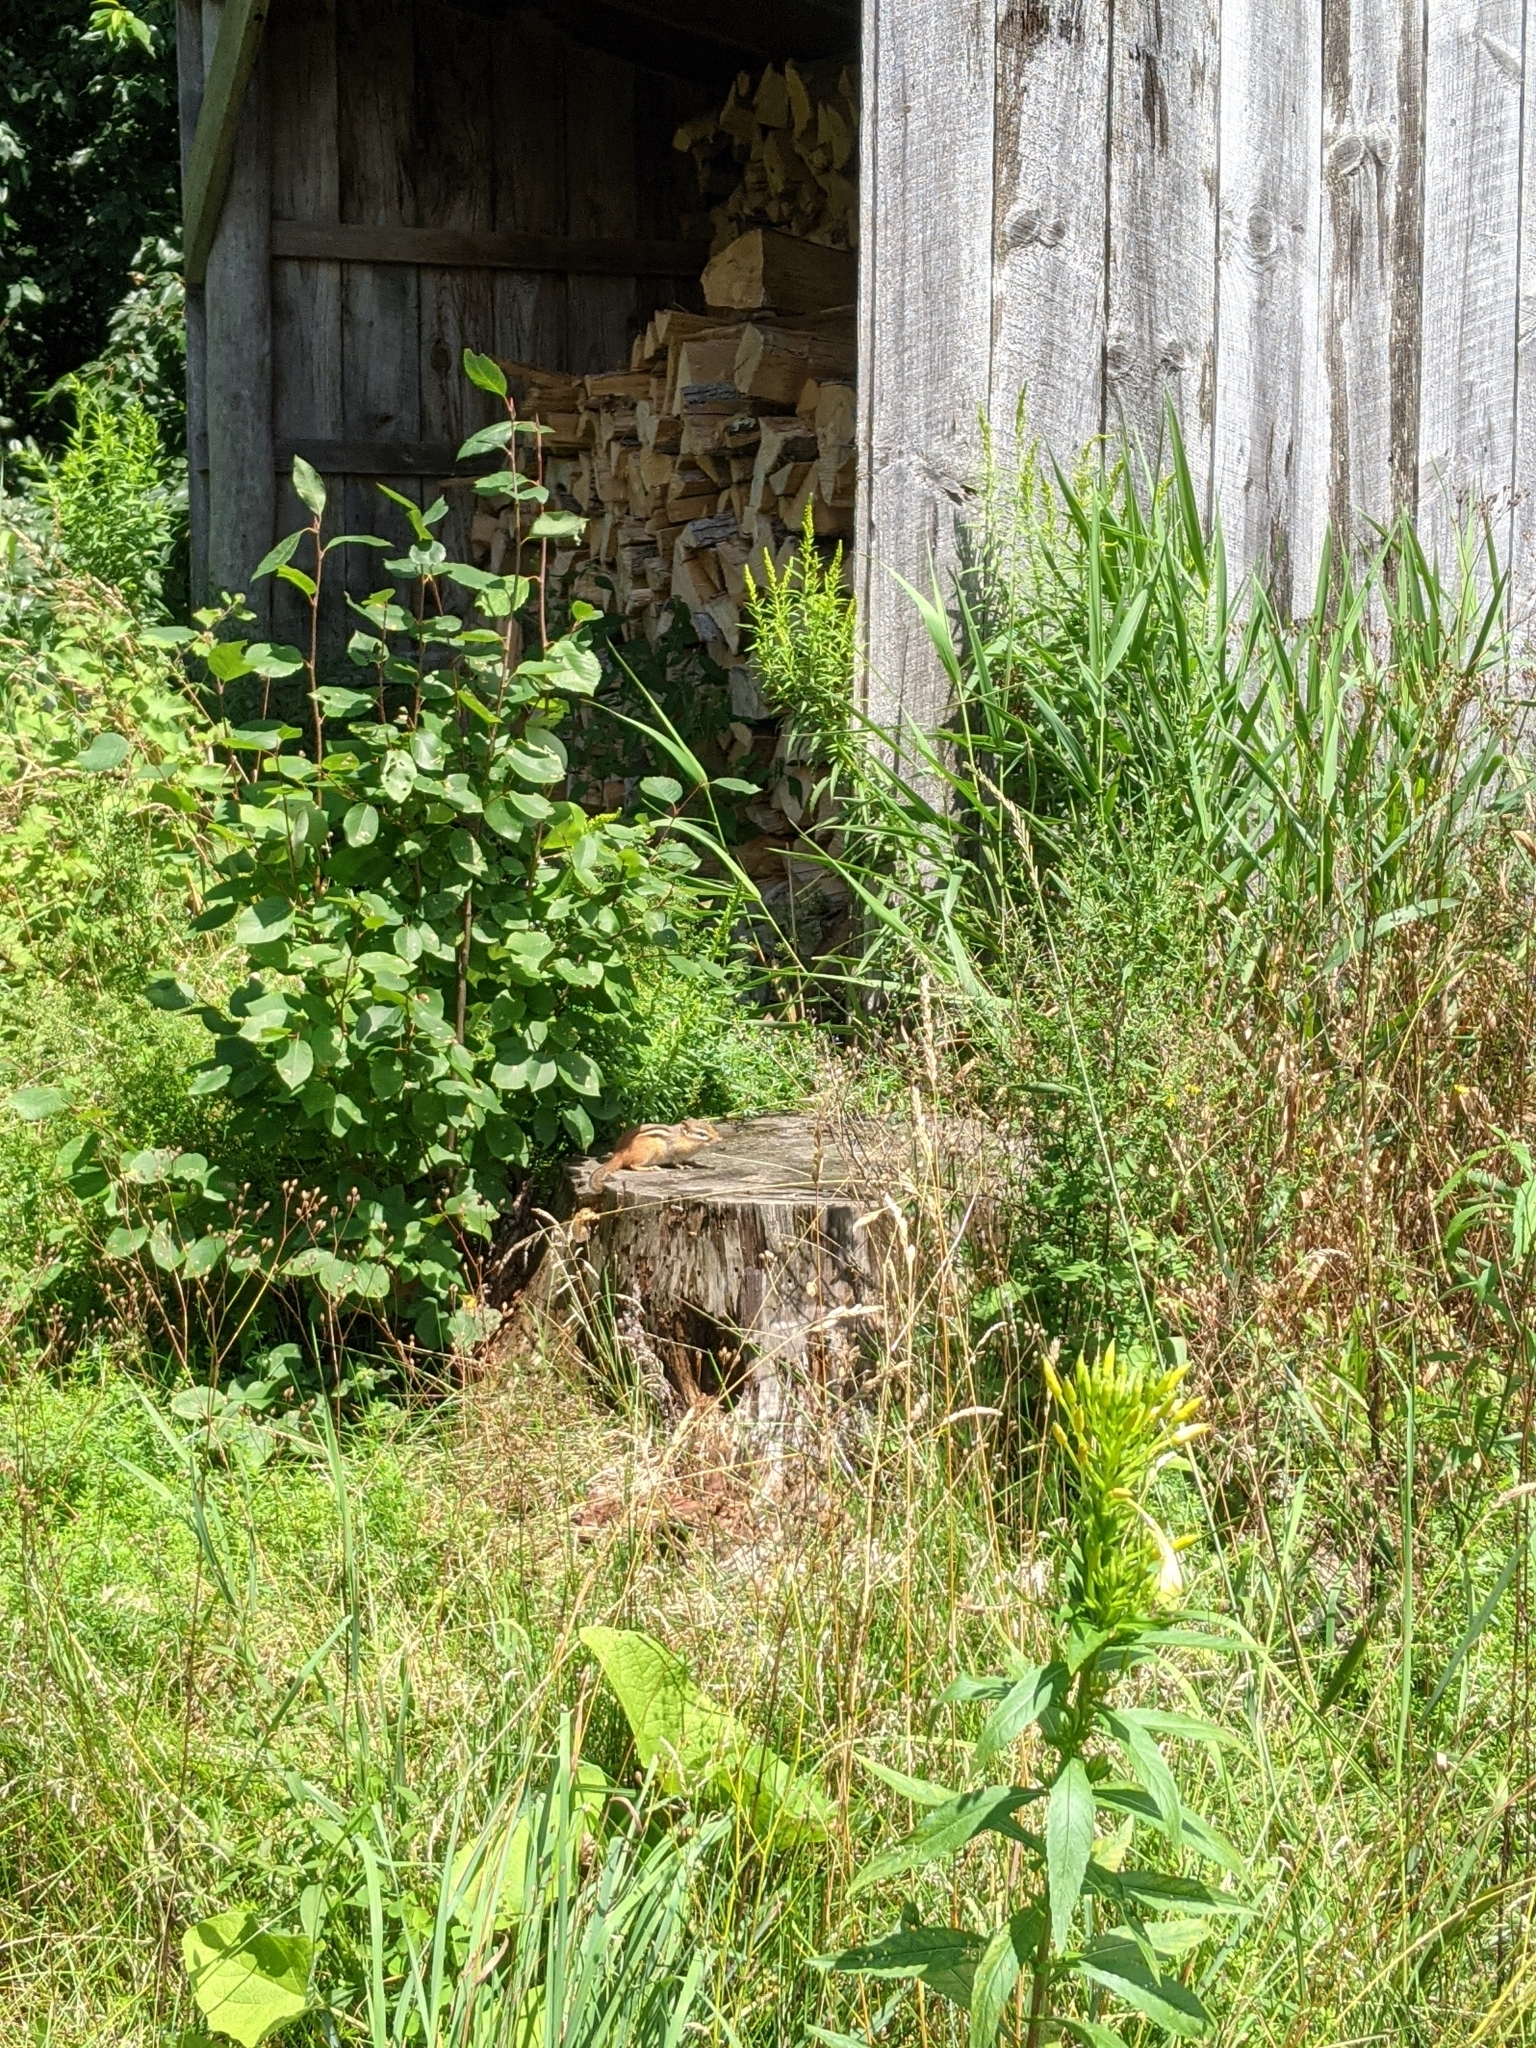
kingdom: Animalia
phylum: Chordata
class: Mammalia
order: Rodentia
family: Sciuridae
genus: Tamias
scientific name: Tamias striatus
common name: Eastern chipmunk
